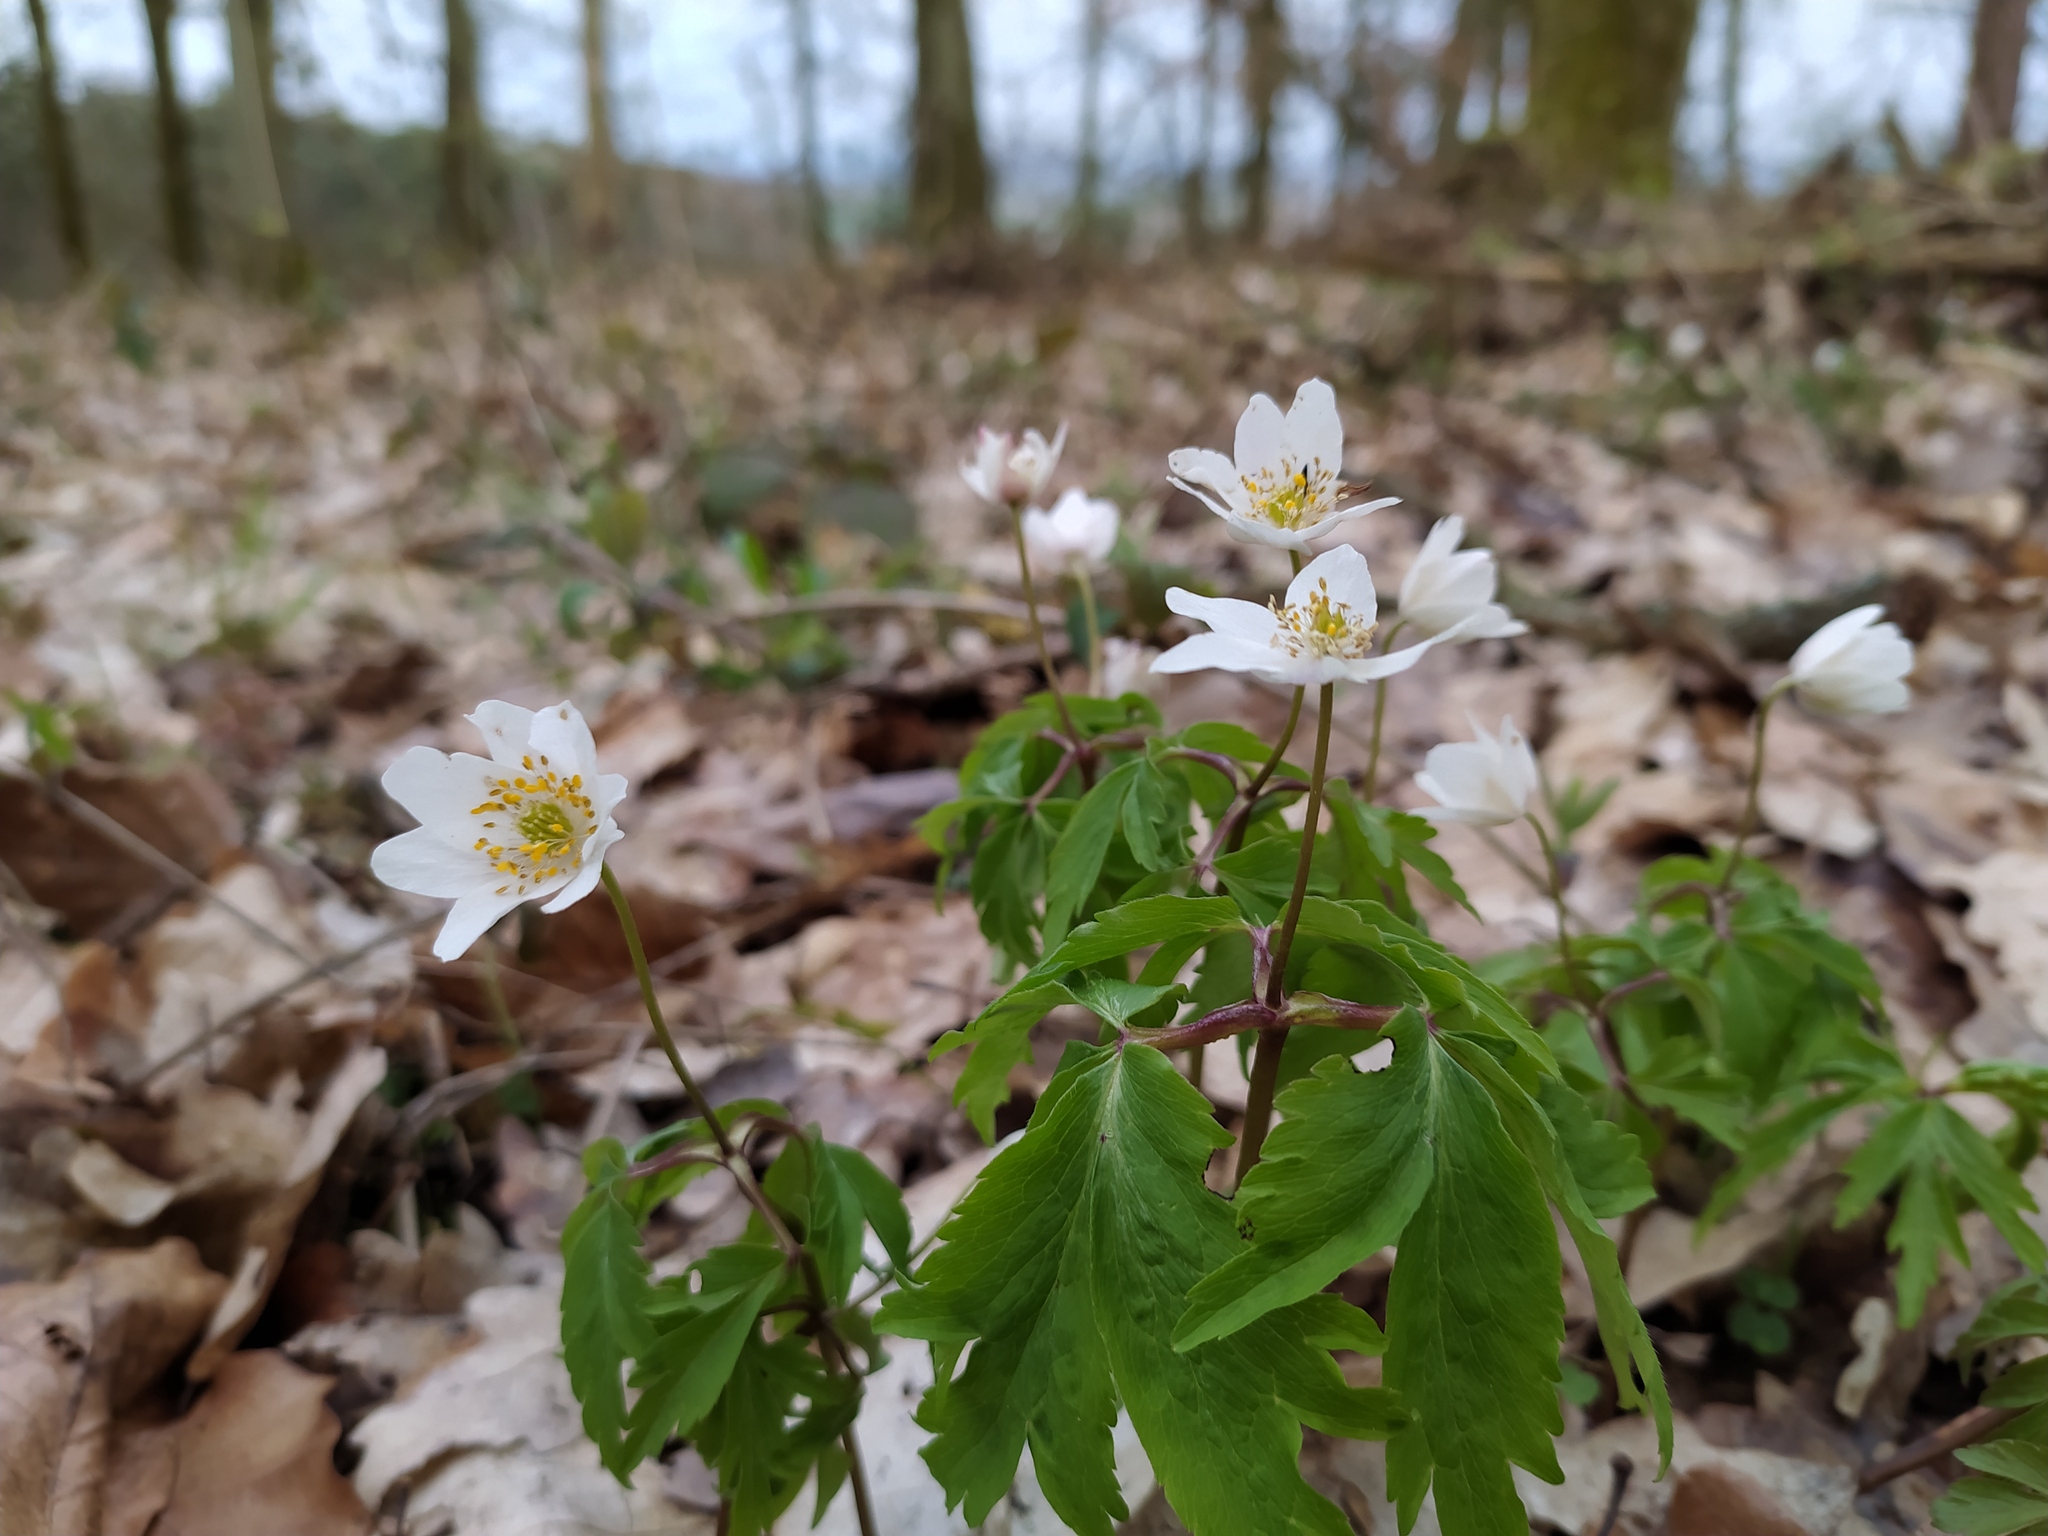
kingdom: Plantae
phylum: Tracheophyta
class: Magnoliopsida
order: Ranunculales
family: Ranunculaceae
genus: Anemone
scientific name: Anemone nemorosa
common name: Wood anemone
